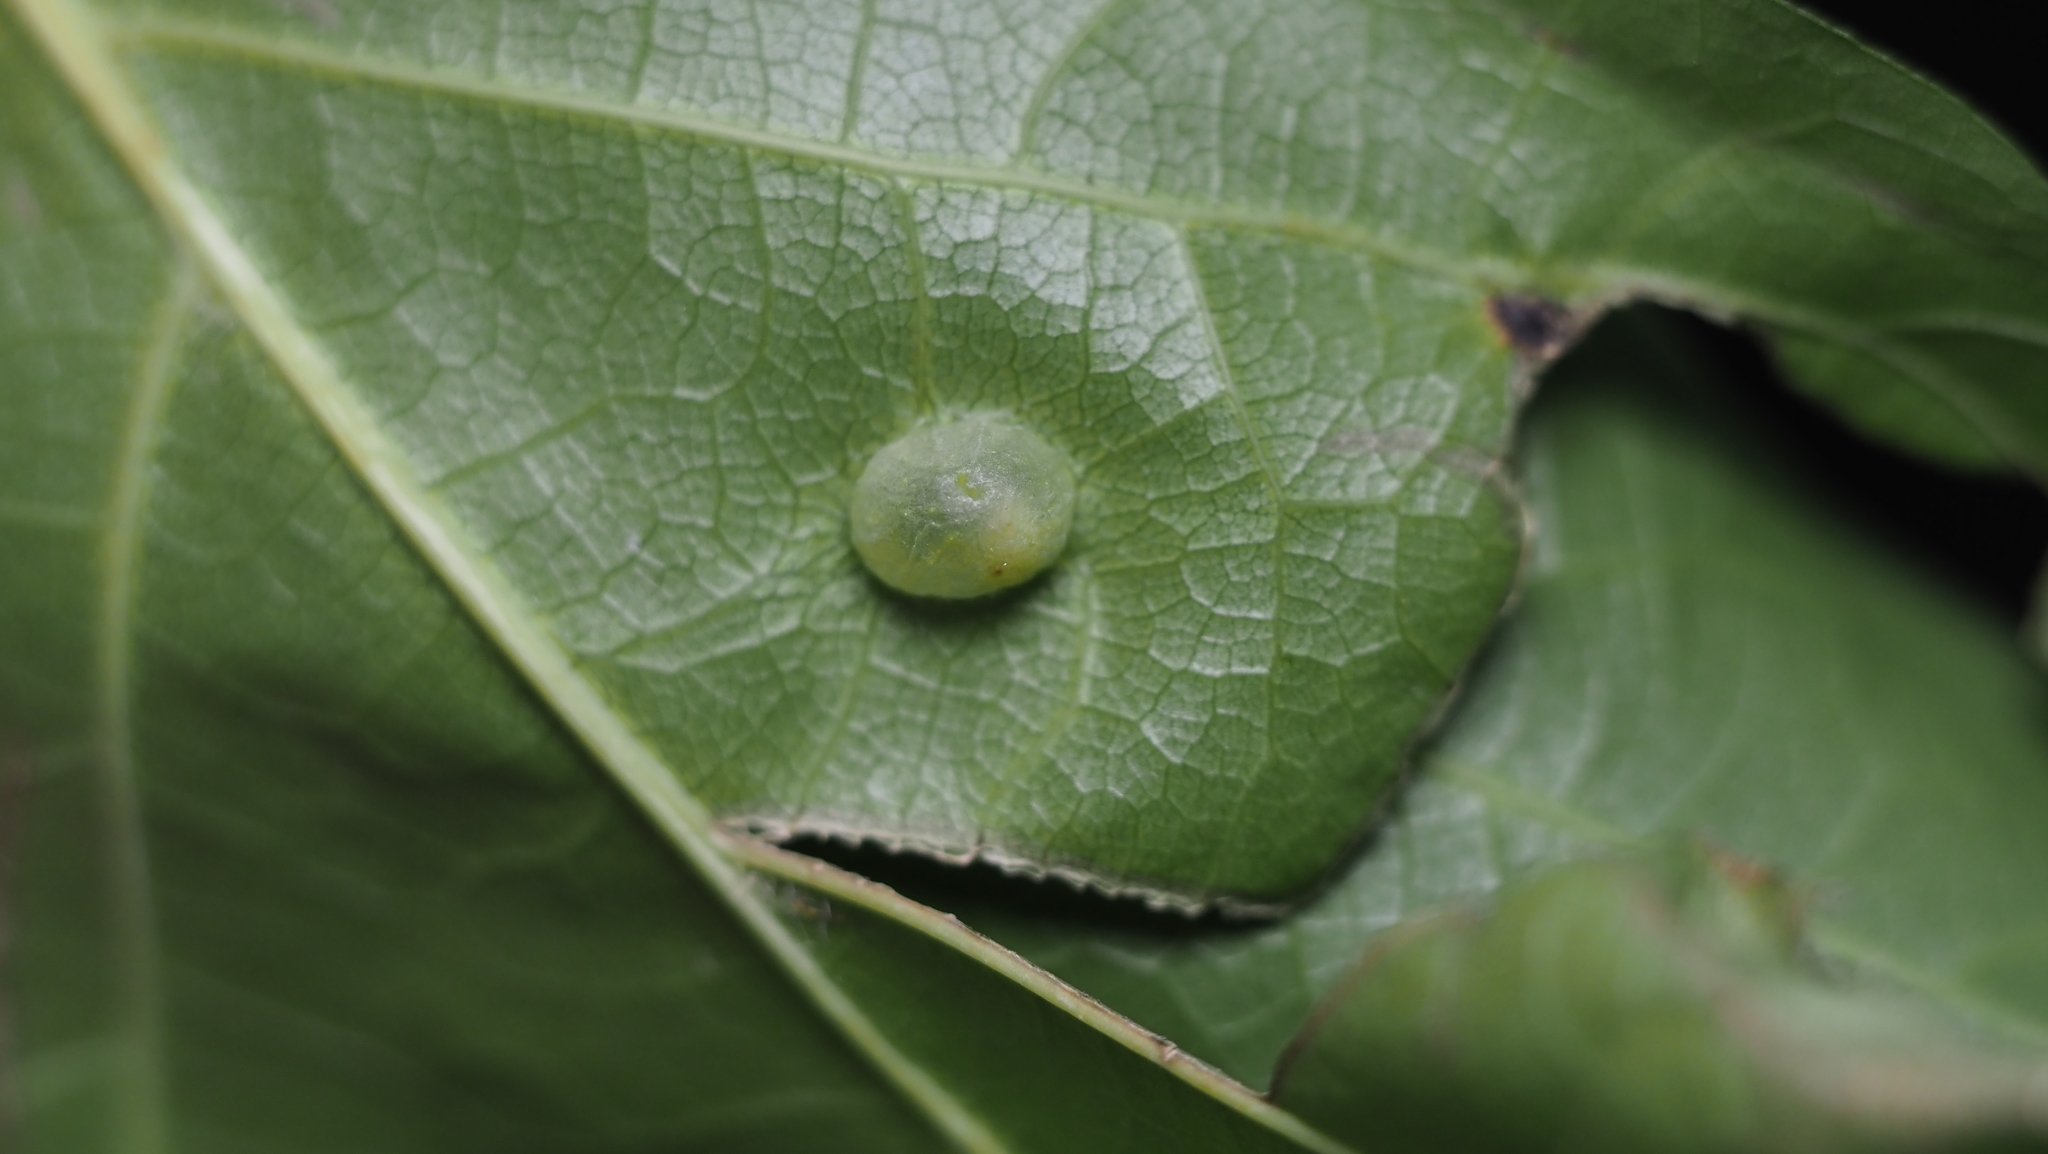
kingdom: Animalia
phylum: Arthropoda
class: Insecta
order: Hymenoptera
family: Cynipidae
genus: Dryocosmus
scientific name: Dryocosmus
